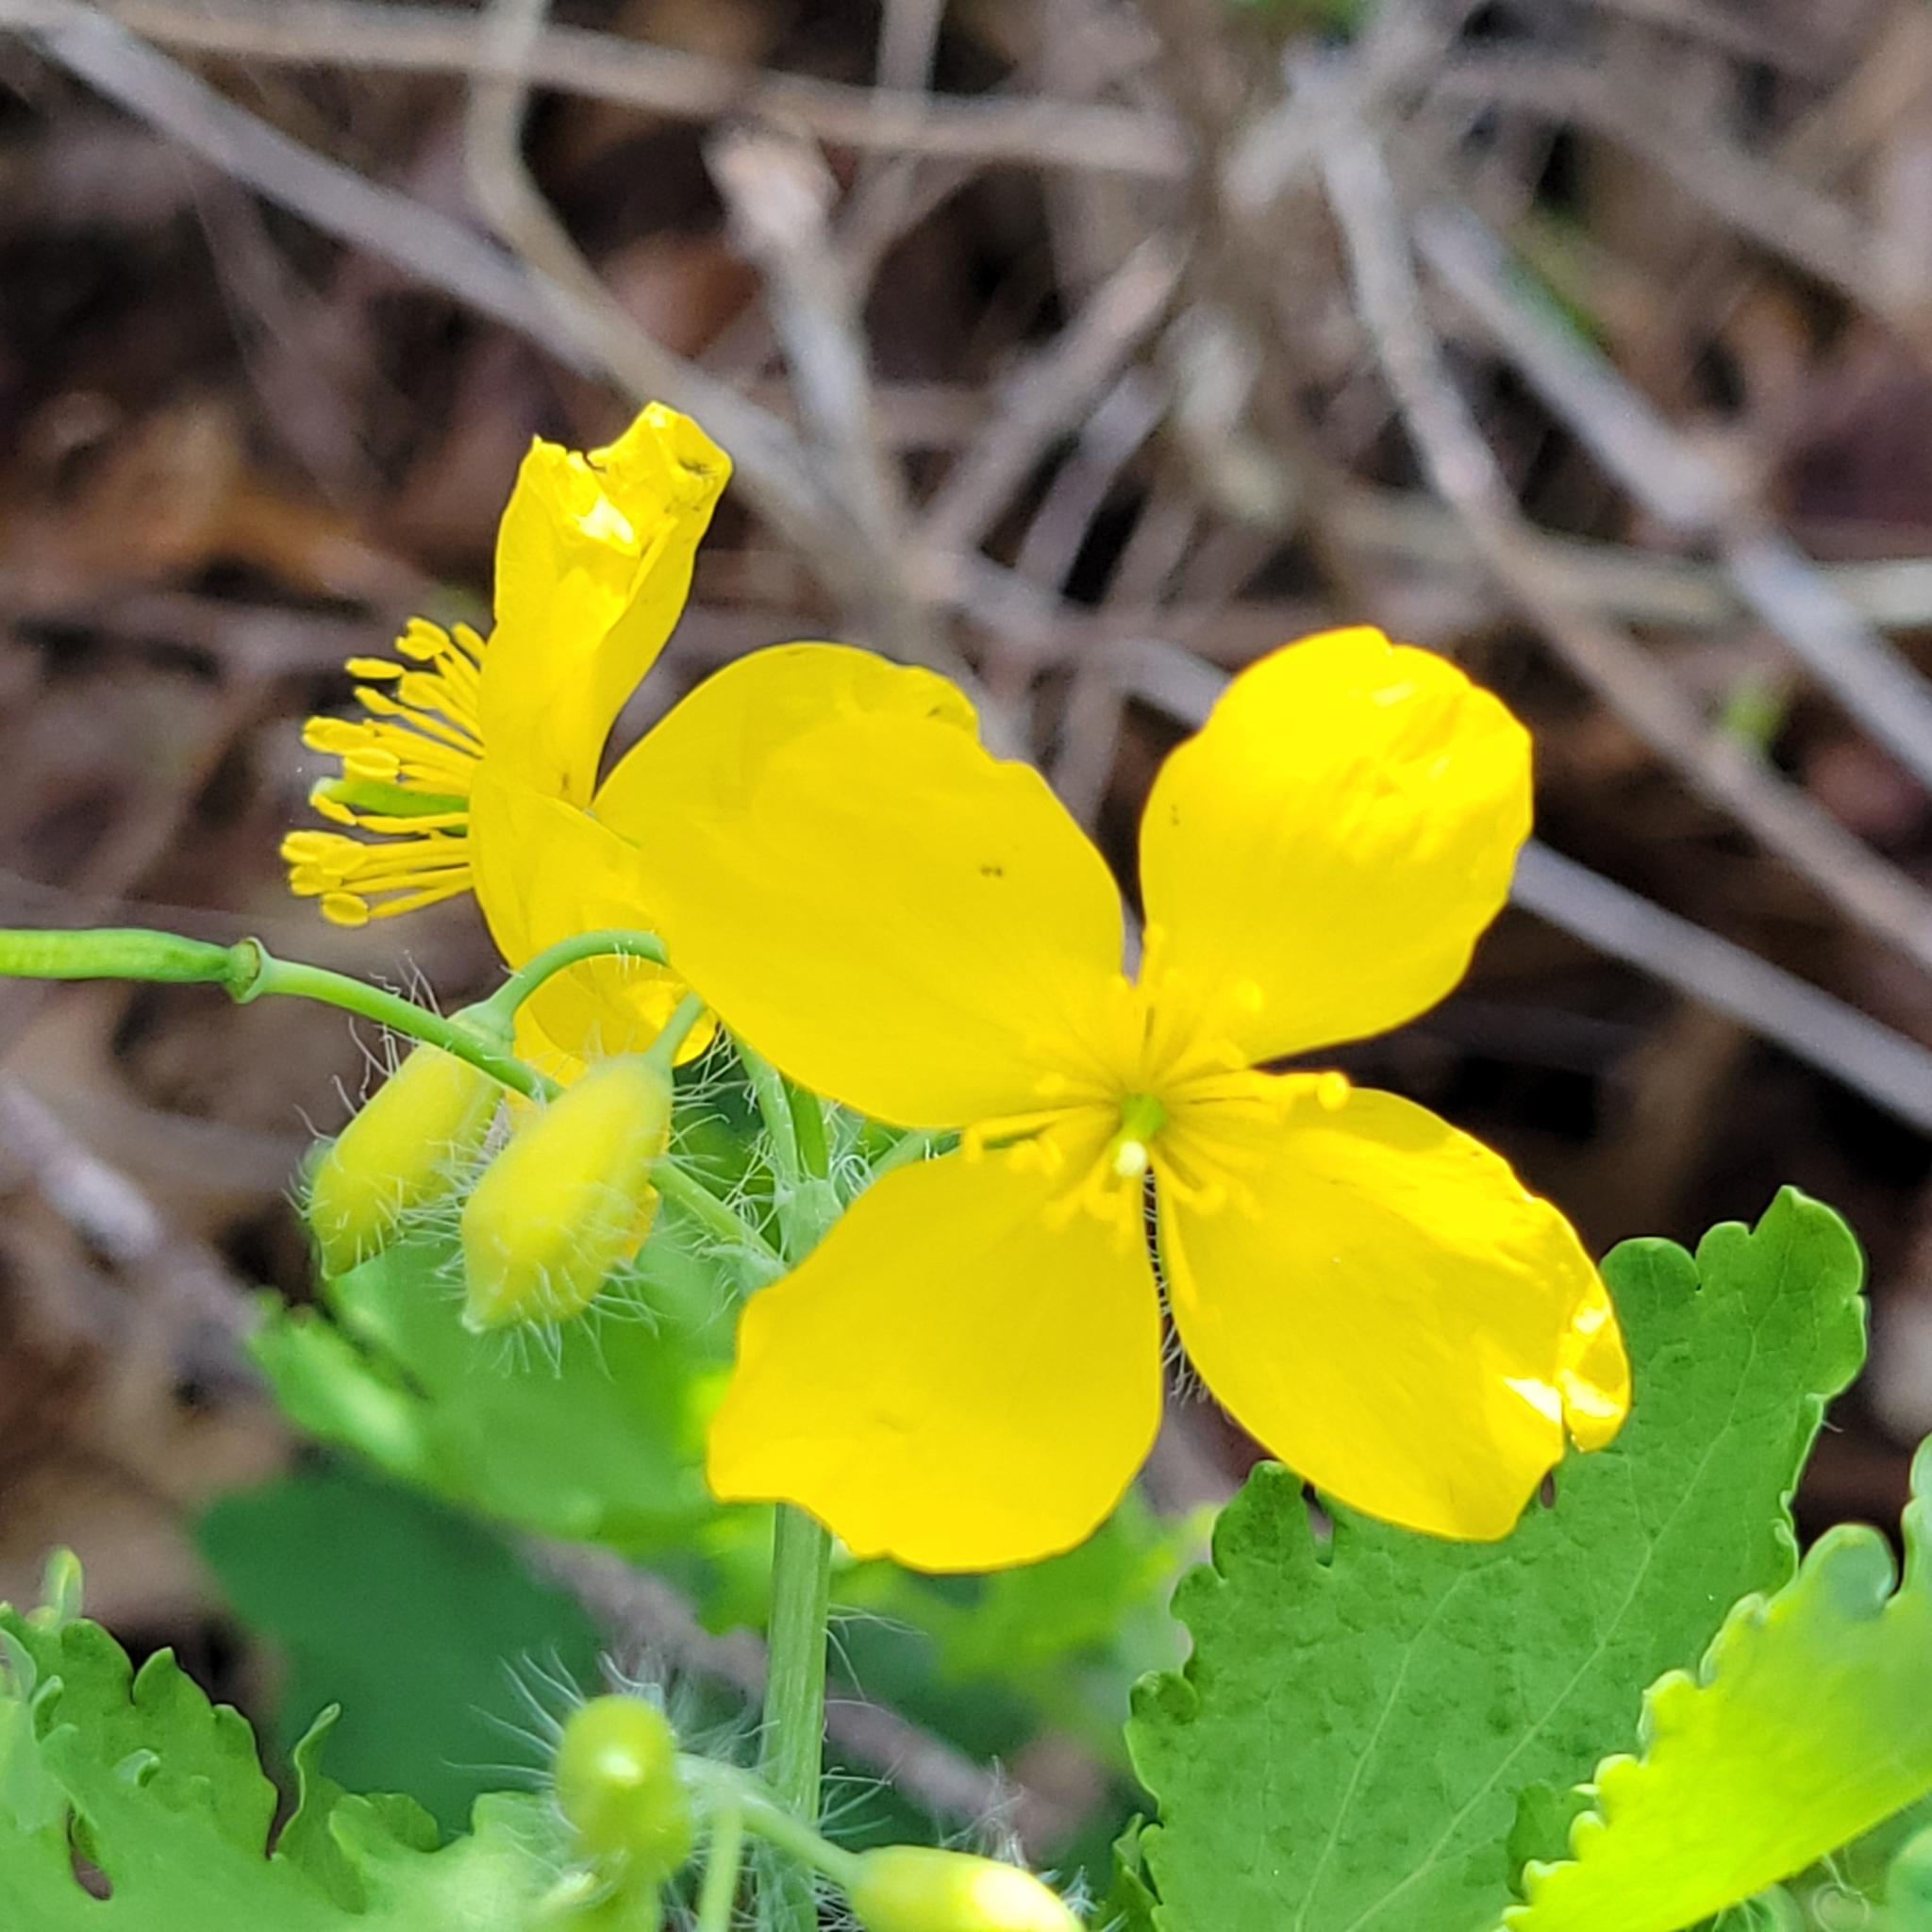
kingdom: Plantae
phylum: Tracheophyta
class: Magnoliopsida
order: Ranunculales
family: Papaveraceae
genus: Chelidonium
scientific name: Chelidonium majus
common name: Greater celandine
